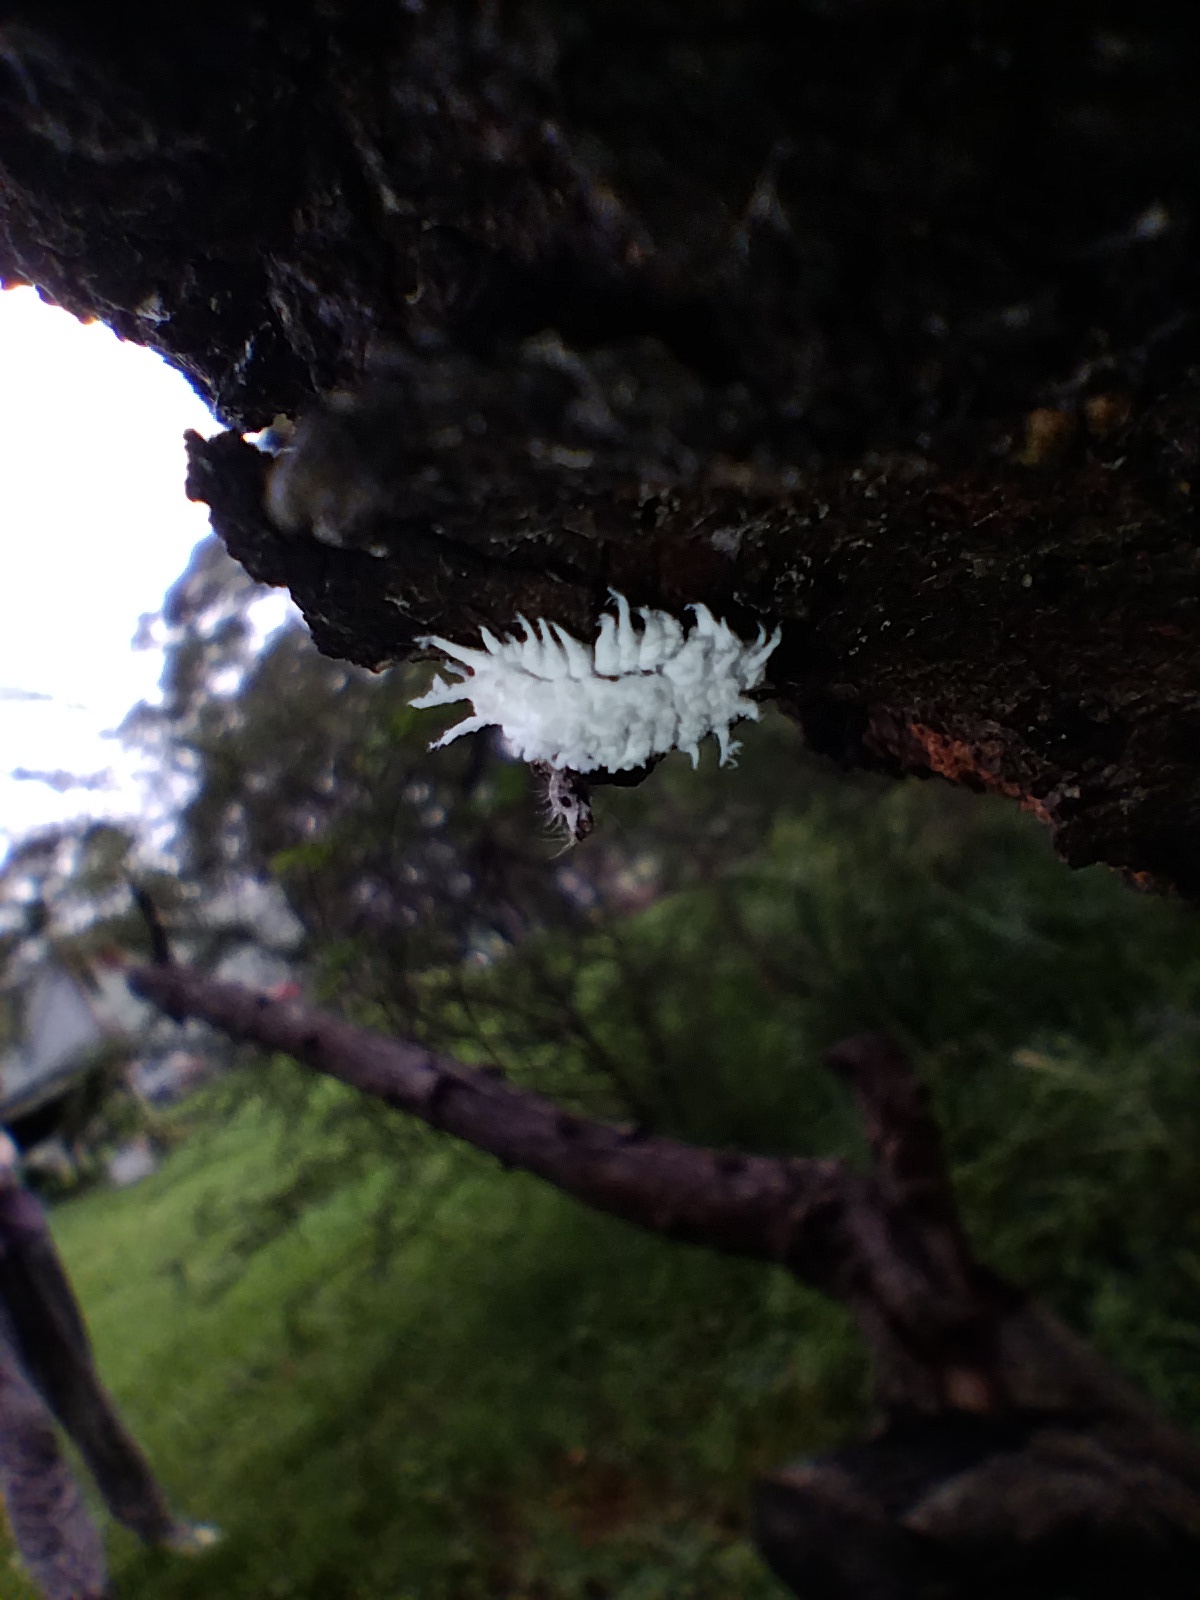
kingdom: Animalia
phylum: Arthropoda
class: Insecta
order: Coleoptera
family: Coccinellidae
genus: Cryptolaemus
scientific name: Cryptolaemus montrouzieri
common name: Mealybug destroyer
